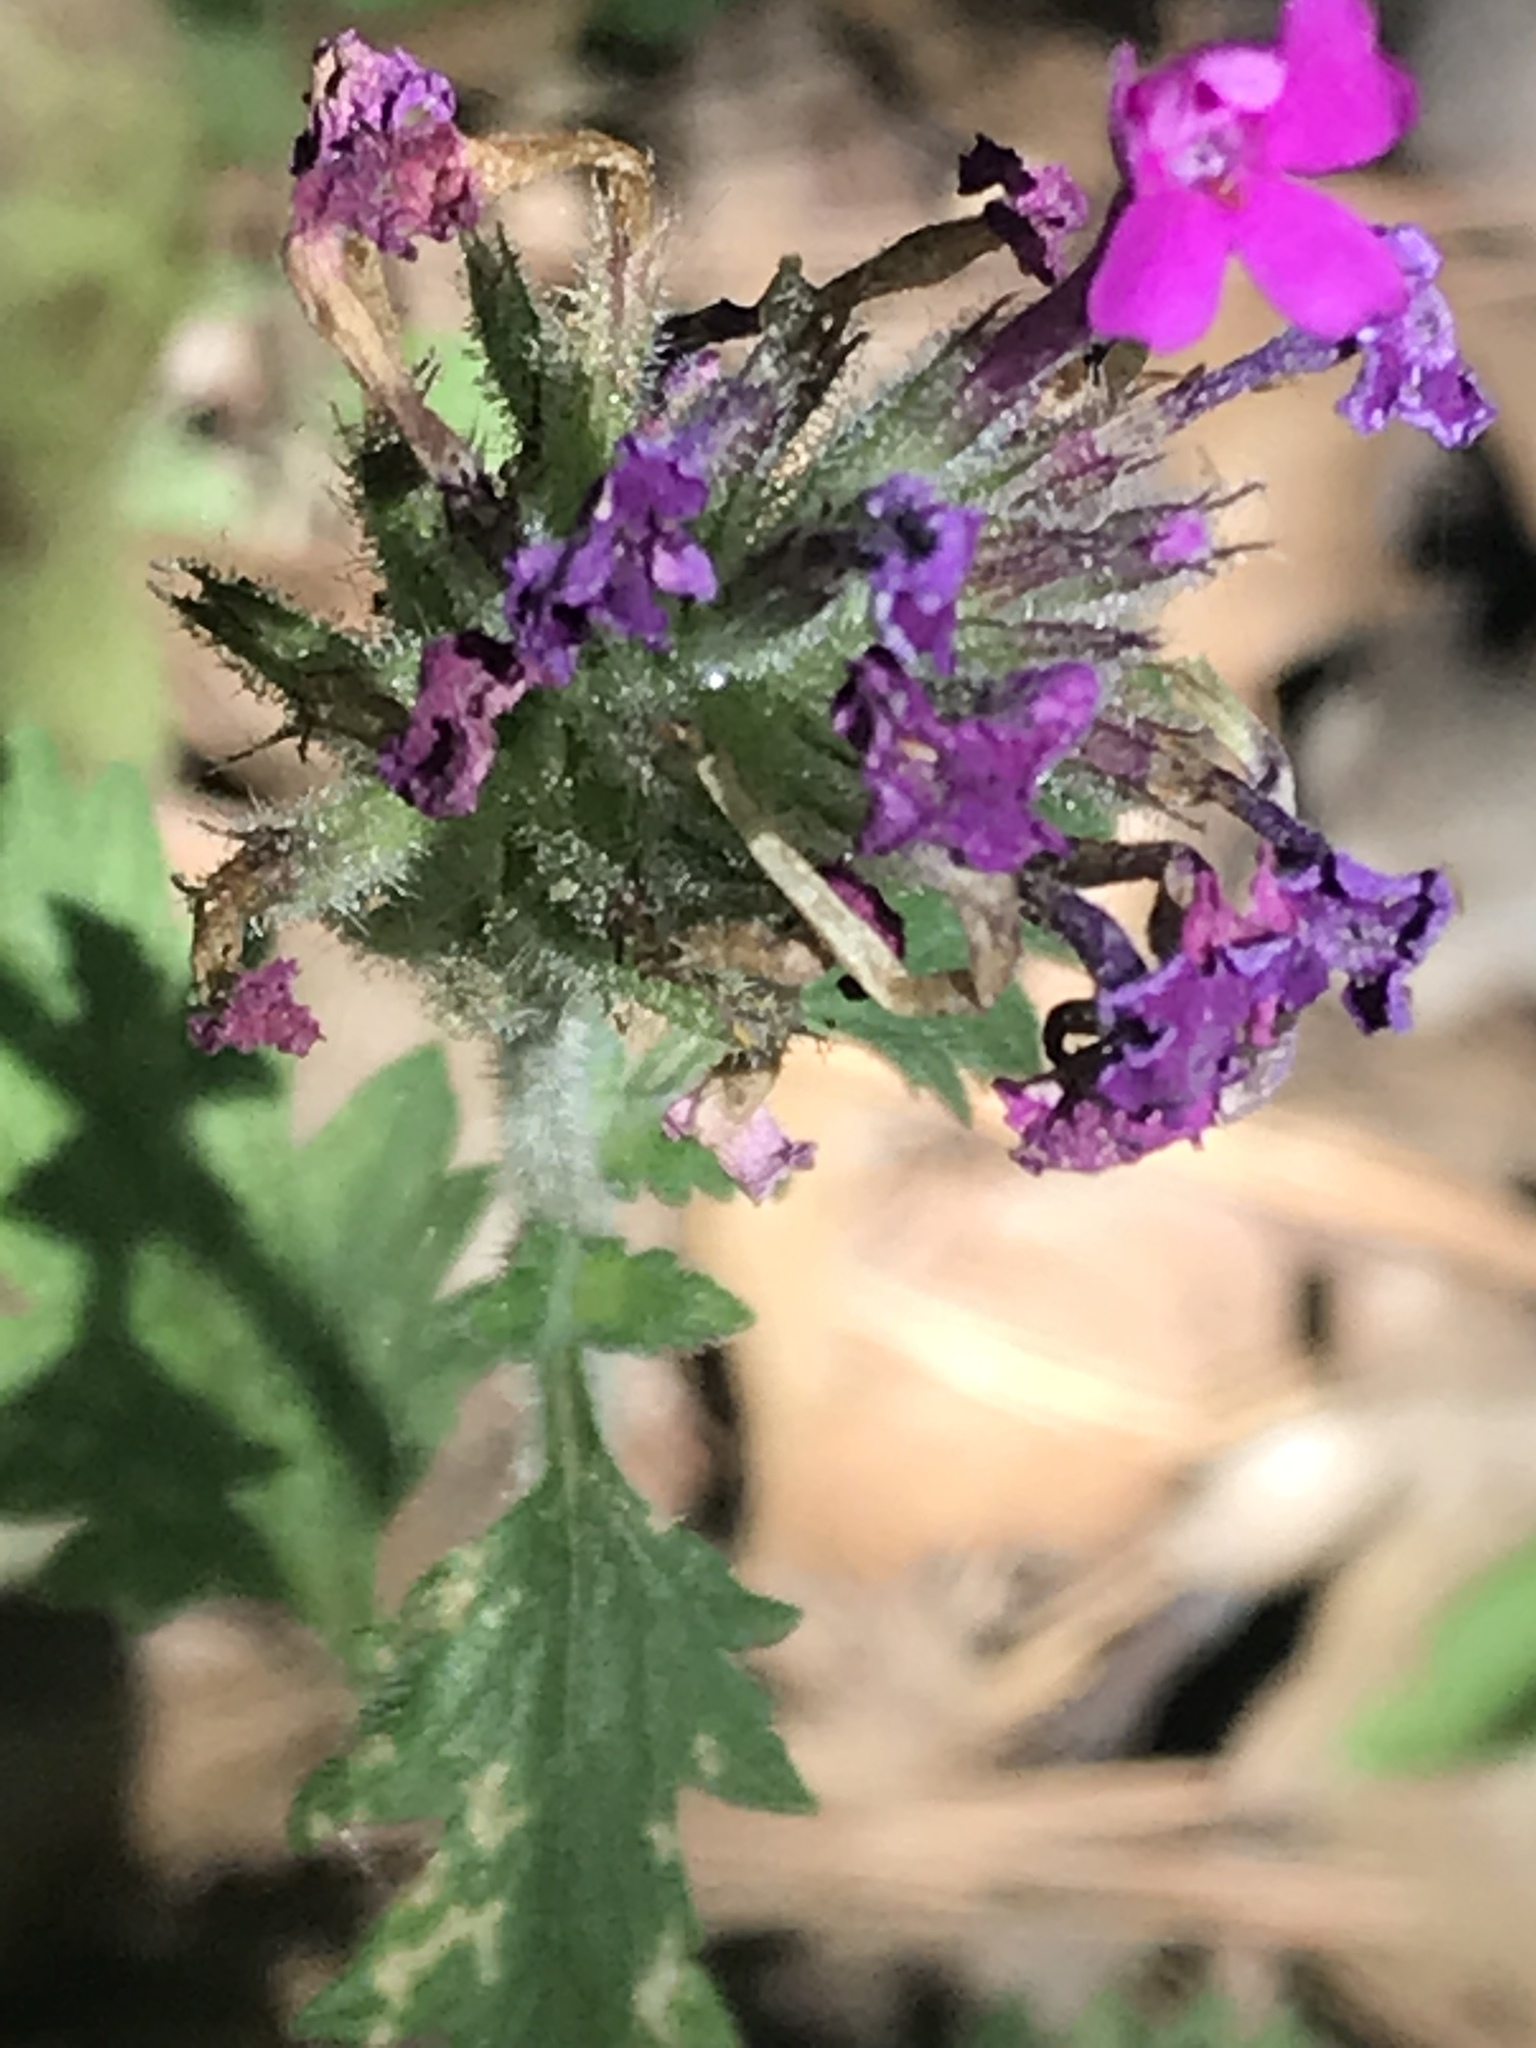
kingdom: Plantae
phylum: Tracheophyta
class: Magnoliopsida
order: Lamiales
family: Verbenaceae
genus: Verbena
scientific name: Verbena canadensis
